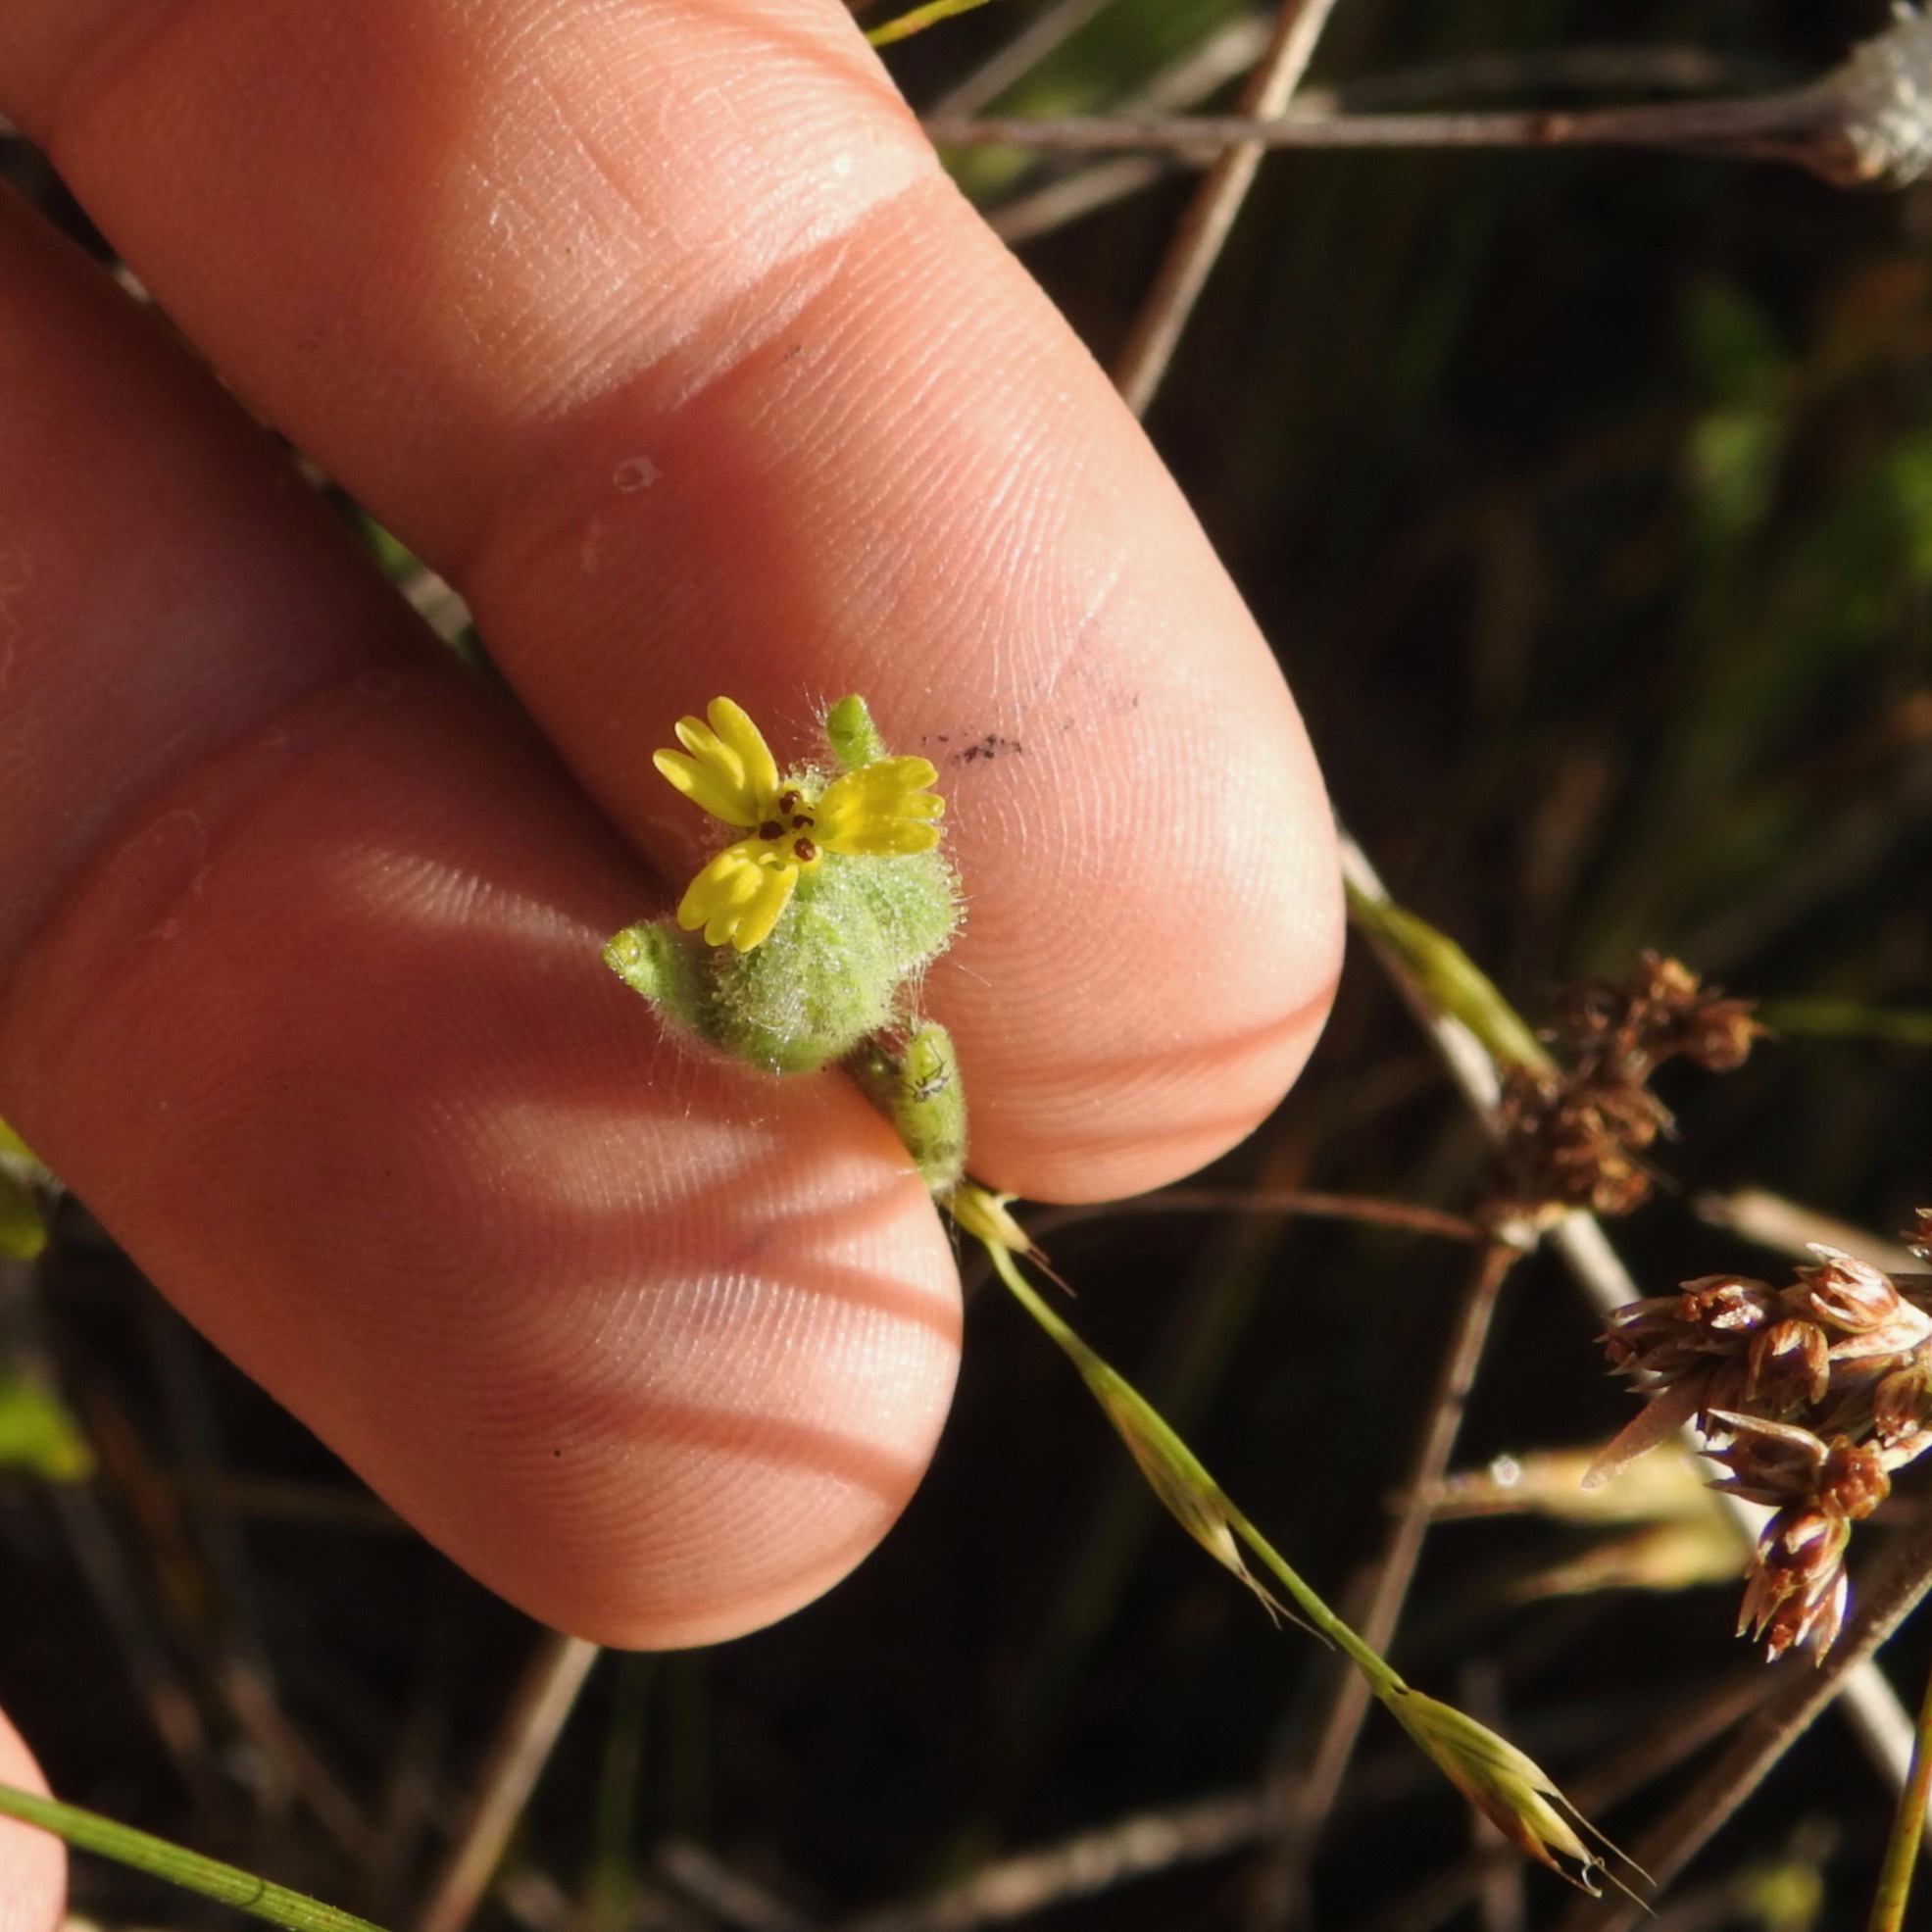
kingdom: Plantae
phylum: Tracheophyta
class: Magnoliopsida
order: Asterales
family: Asteraceae
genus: Madia
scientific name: Madia gracilis
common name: Grassy tarweed
